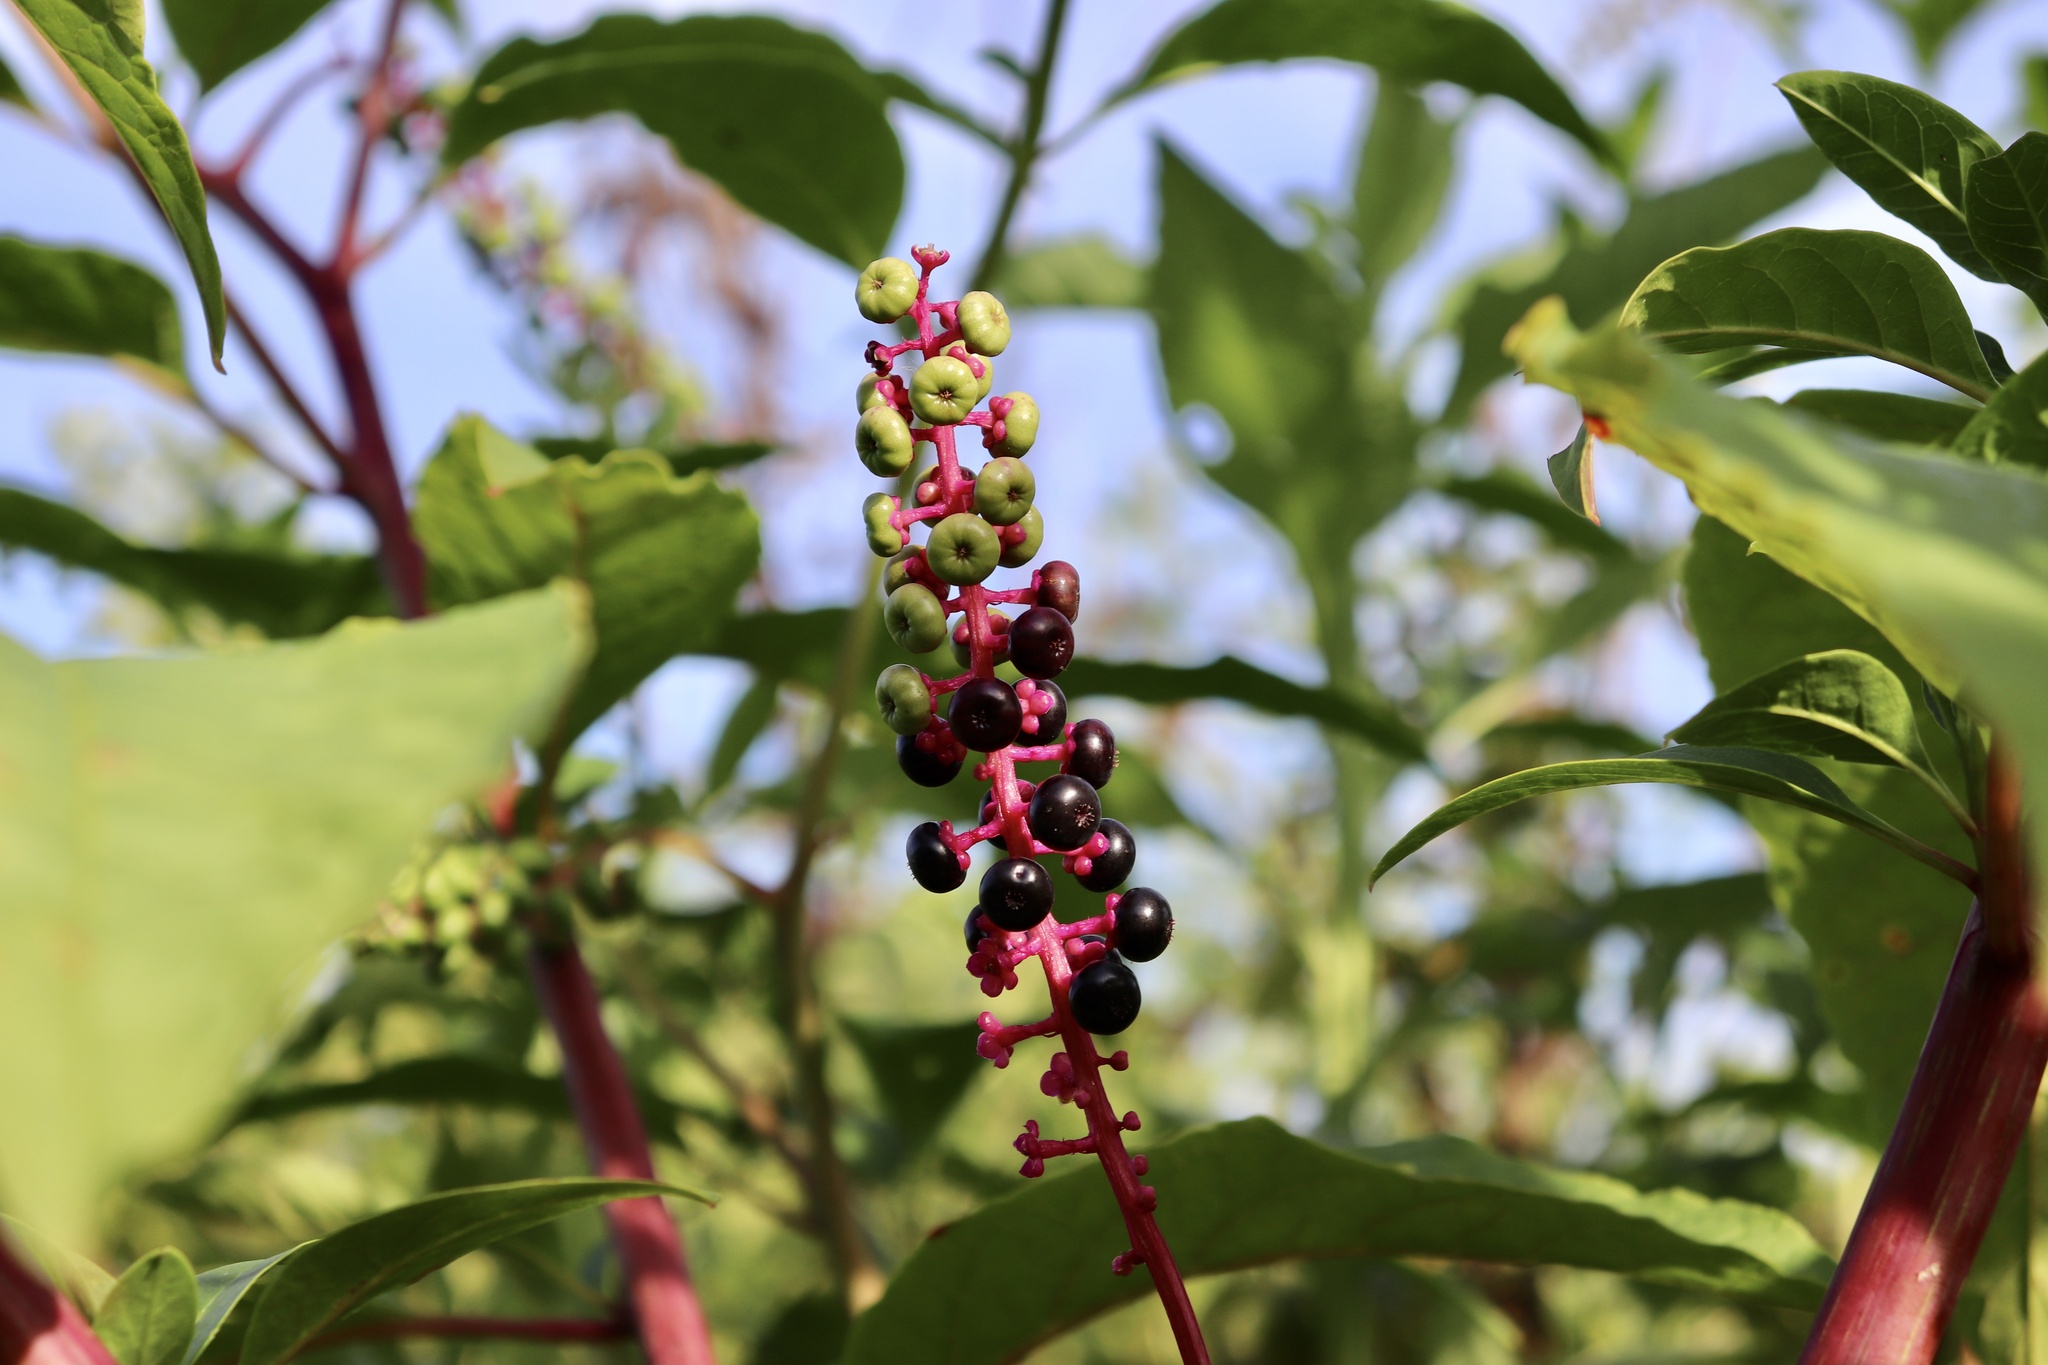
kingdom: Plantae
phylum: Tracheophyta
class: Magnoliopsida
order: Caryophyllales
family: Phytolaccaceae
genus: Phytolacca
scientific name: Phytolacca americana
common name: American pokeweed
